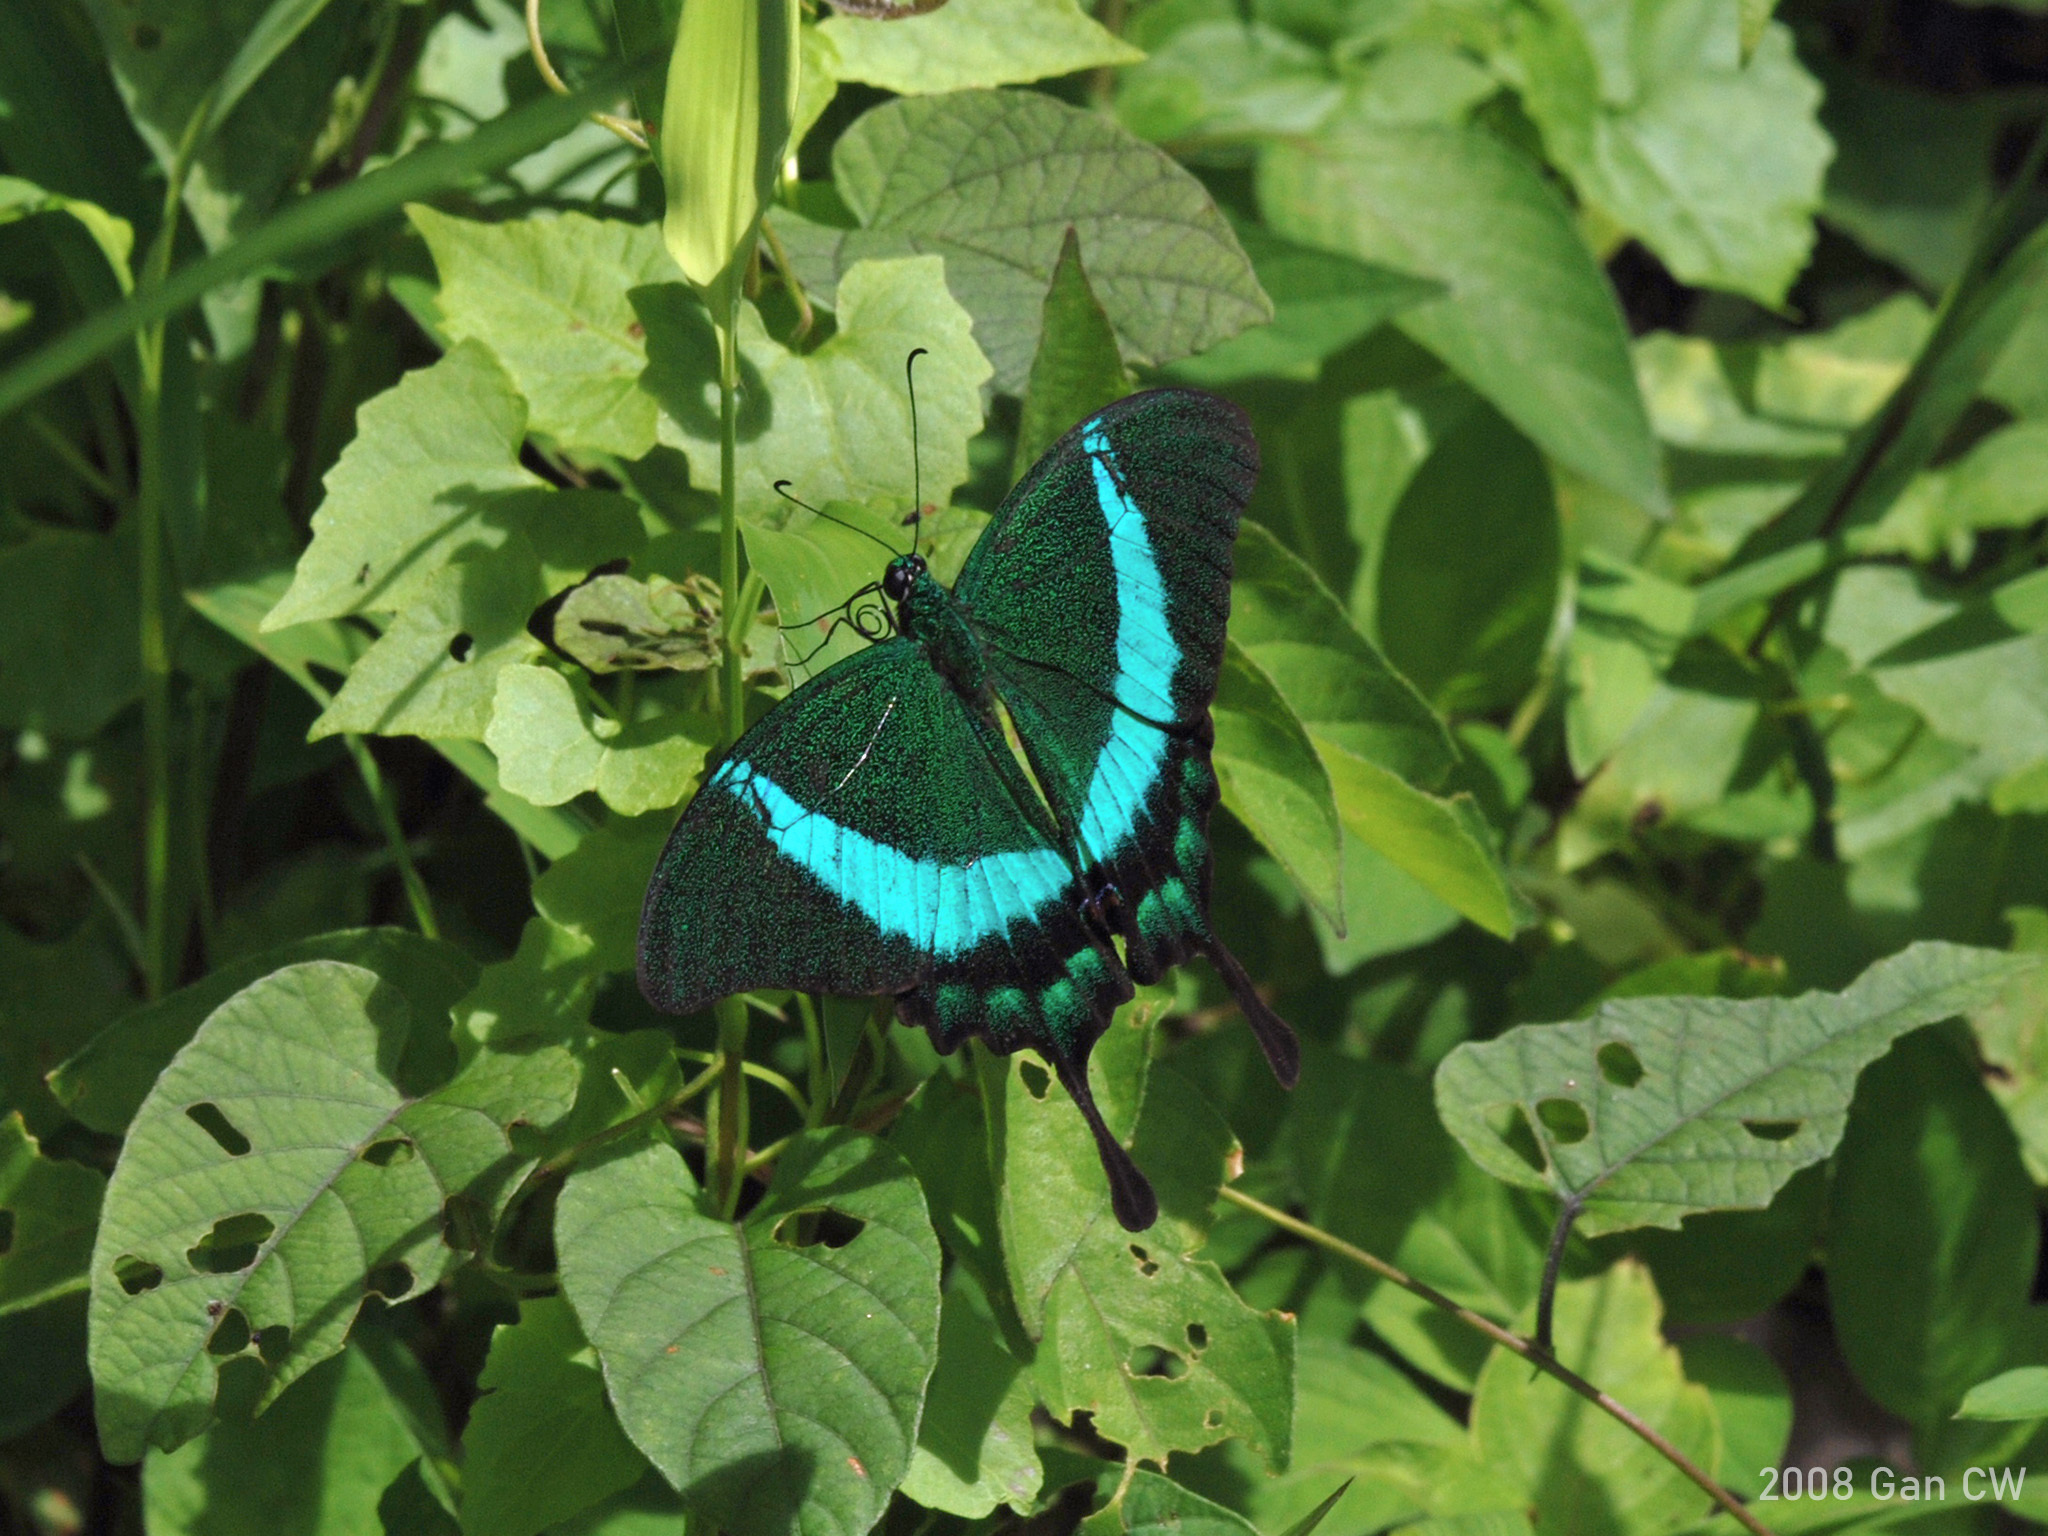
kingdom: Animalia
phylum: Arthropoda
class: Insecta
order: Lepidoptera
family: Papilionidae
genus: Papilio
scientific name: Papilio palinurus
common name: Banded peacock
